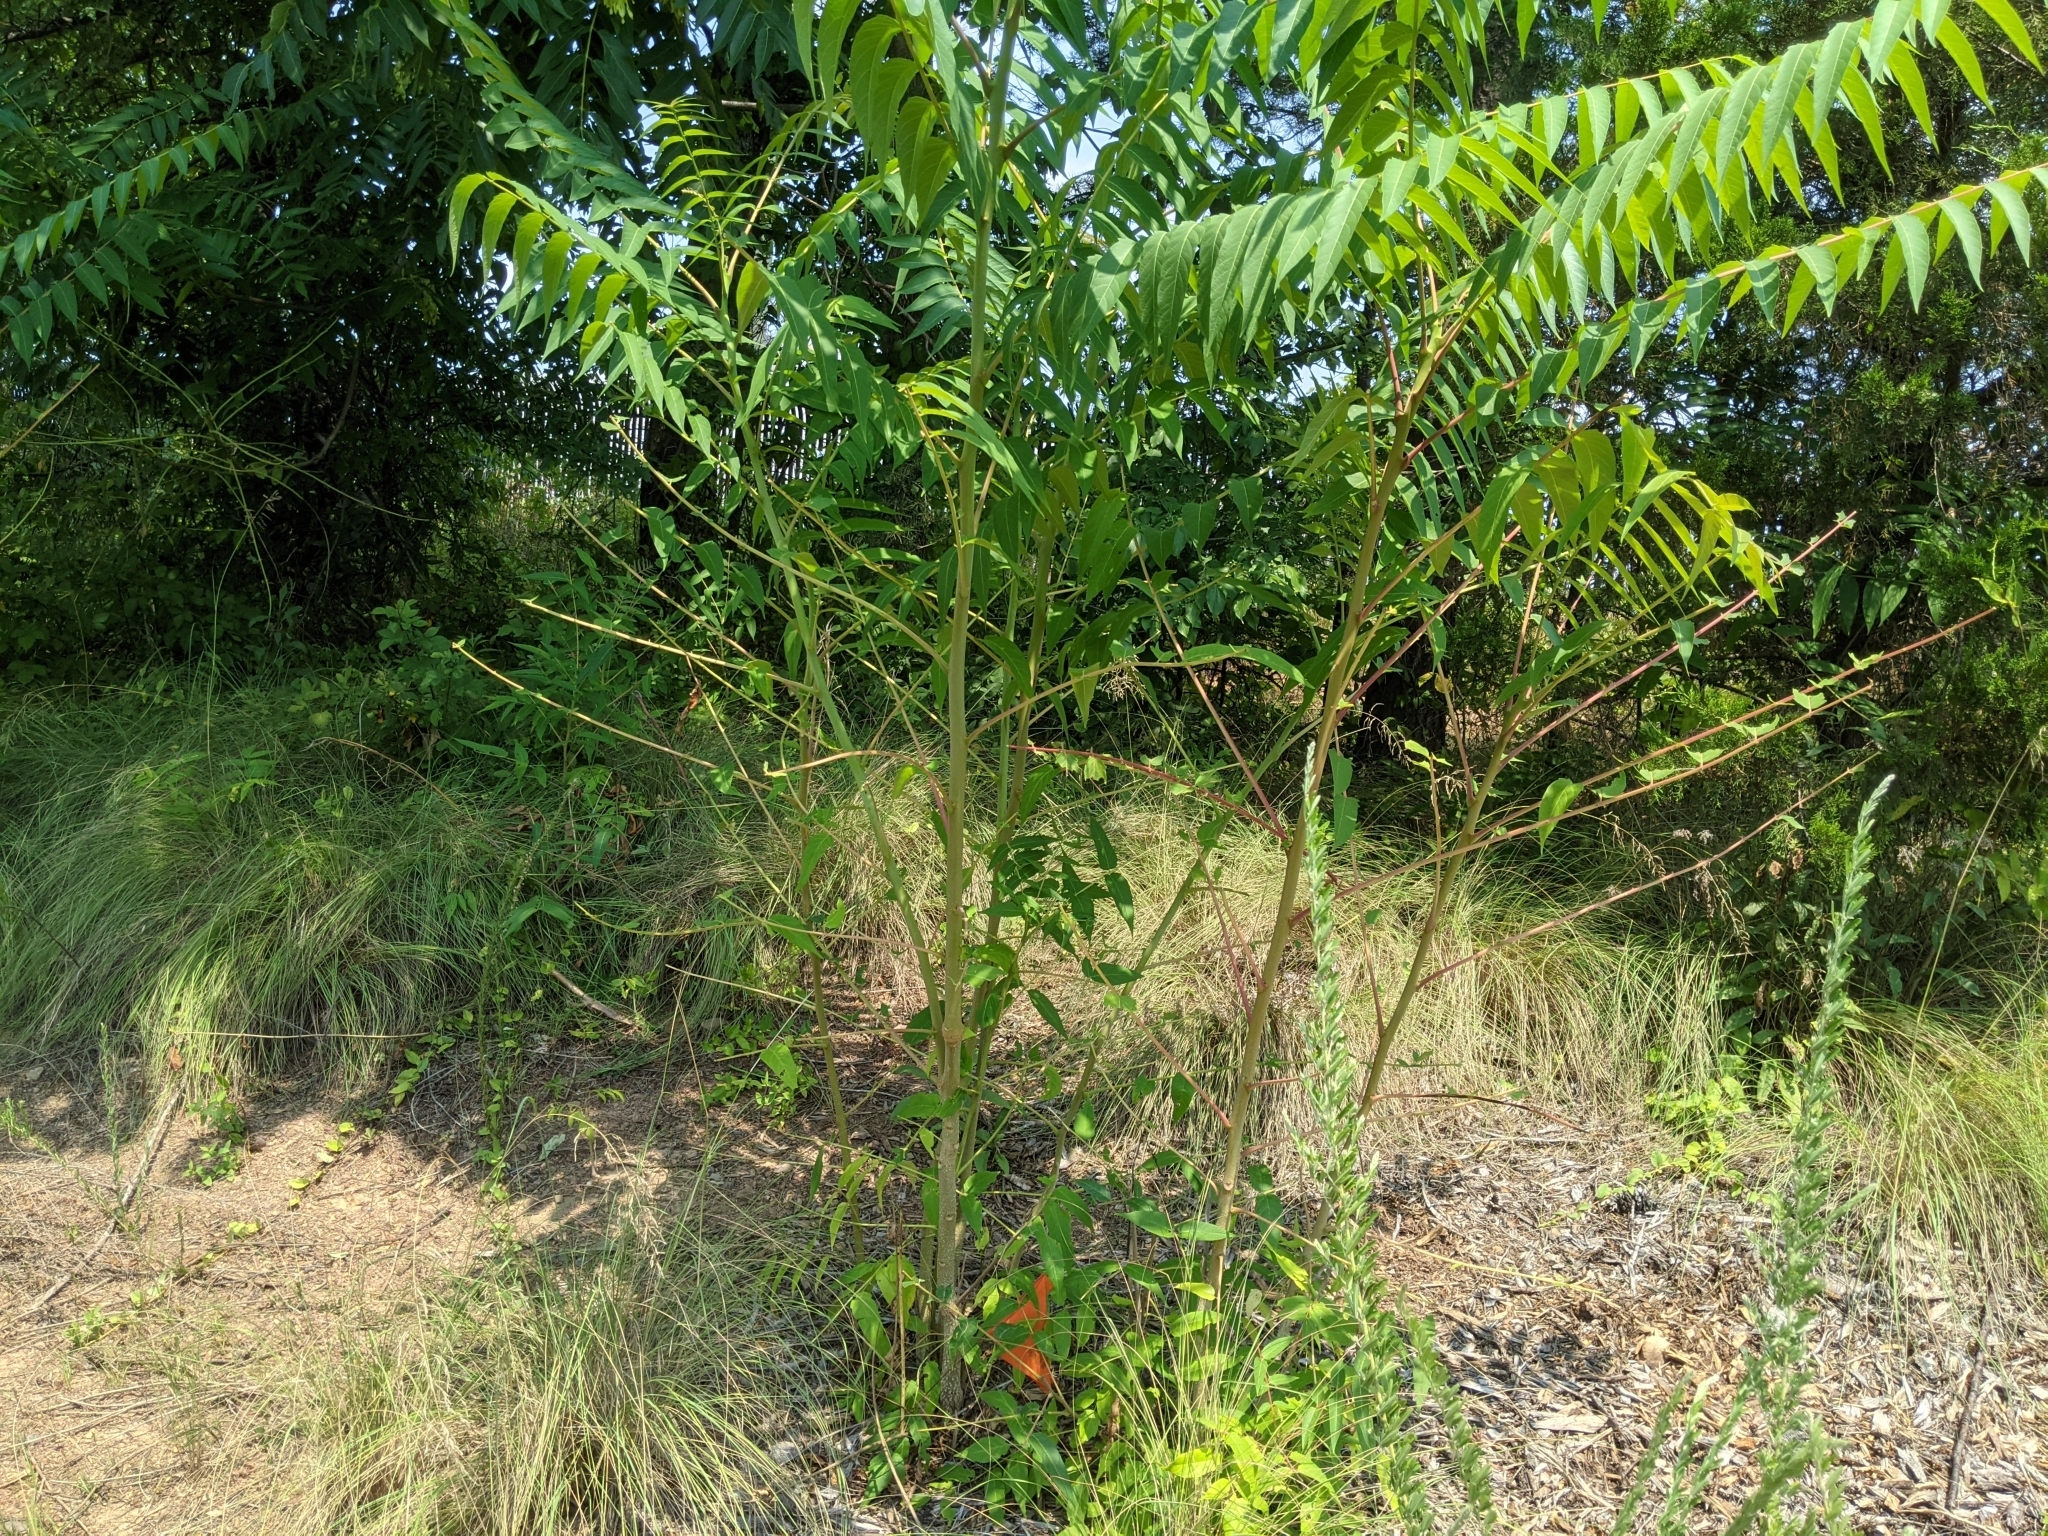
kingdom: Plantae
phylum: Tracheophyta
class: Magnoliopsida
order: Sapindales
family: Simaroubaceae
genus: Ailanthus
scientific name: Ailanthus altissima
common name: Tree-of-heaven
